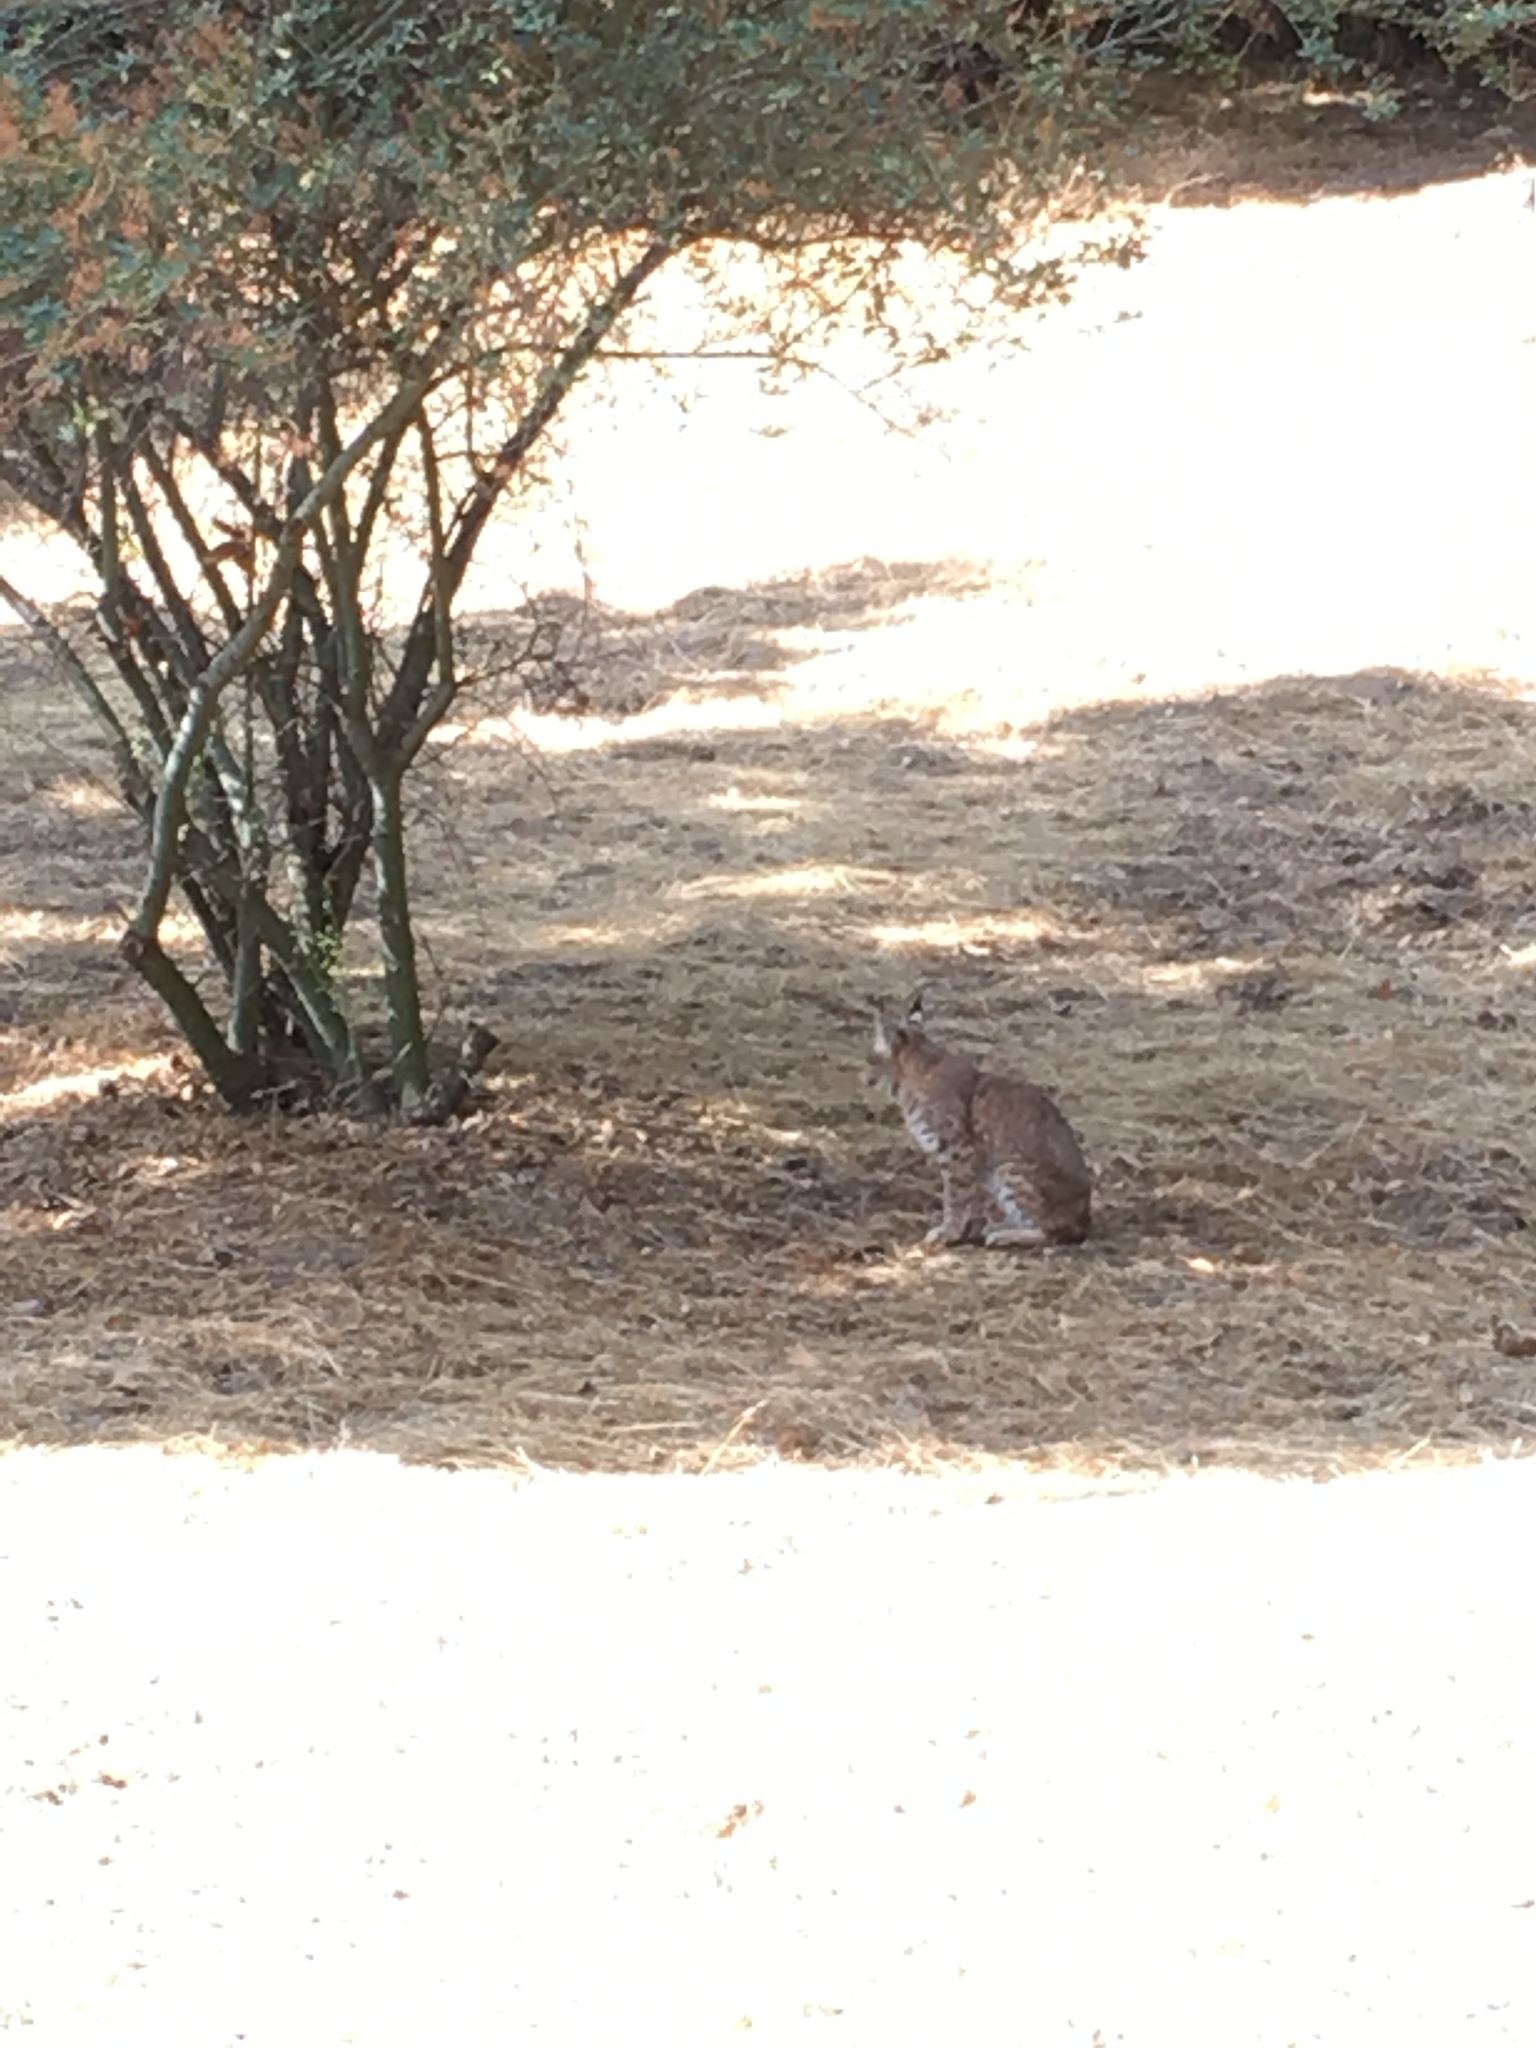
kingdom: Animalia
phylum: Chordata
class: Mammalia
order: Carnivora
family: Felidae
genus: Lynx
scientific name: Lynx rufus
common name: Bobcat
